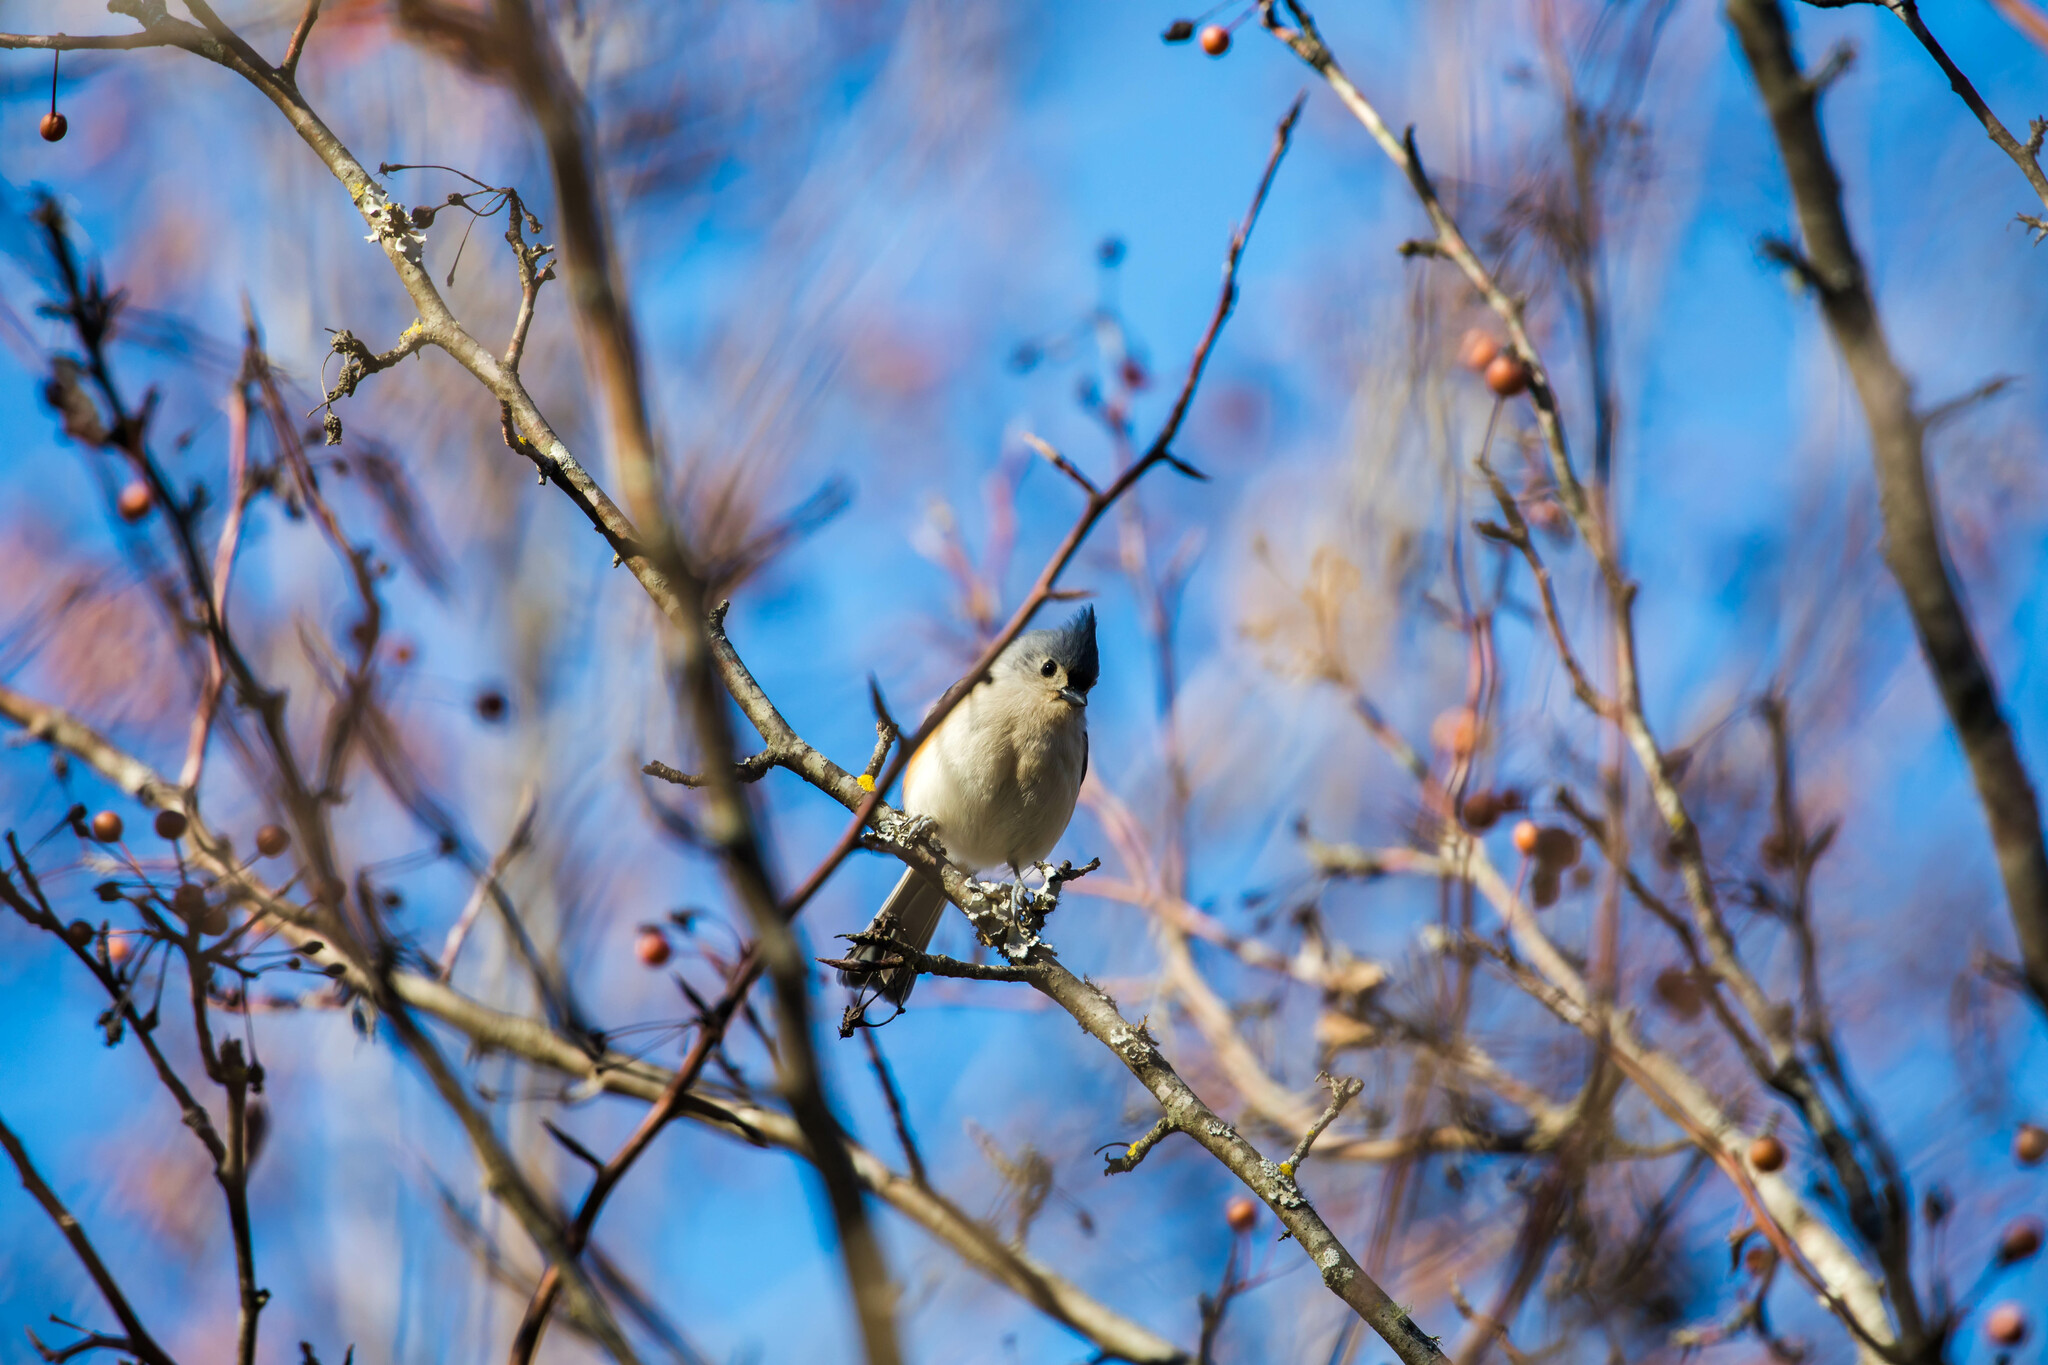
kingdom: Animalia
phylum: Chordata
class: Aves
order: Passeriformes
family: Paridae
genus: Baeolophus
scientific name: Baeolophus bicolor
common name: Tufted titmouse
